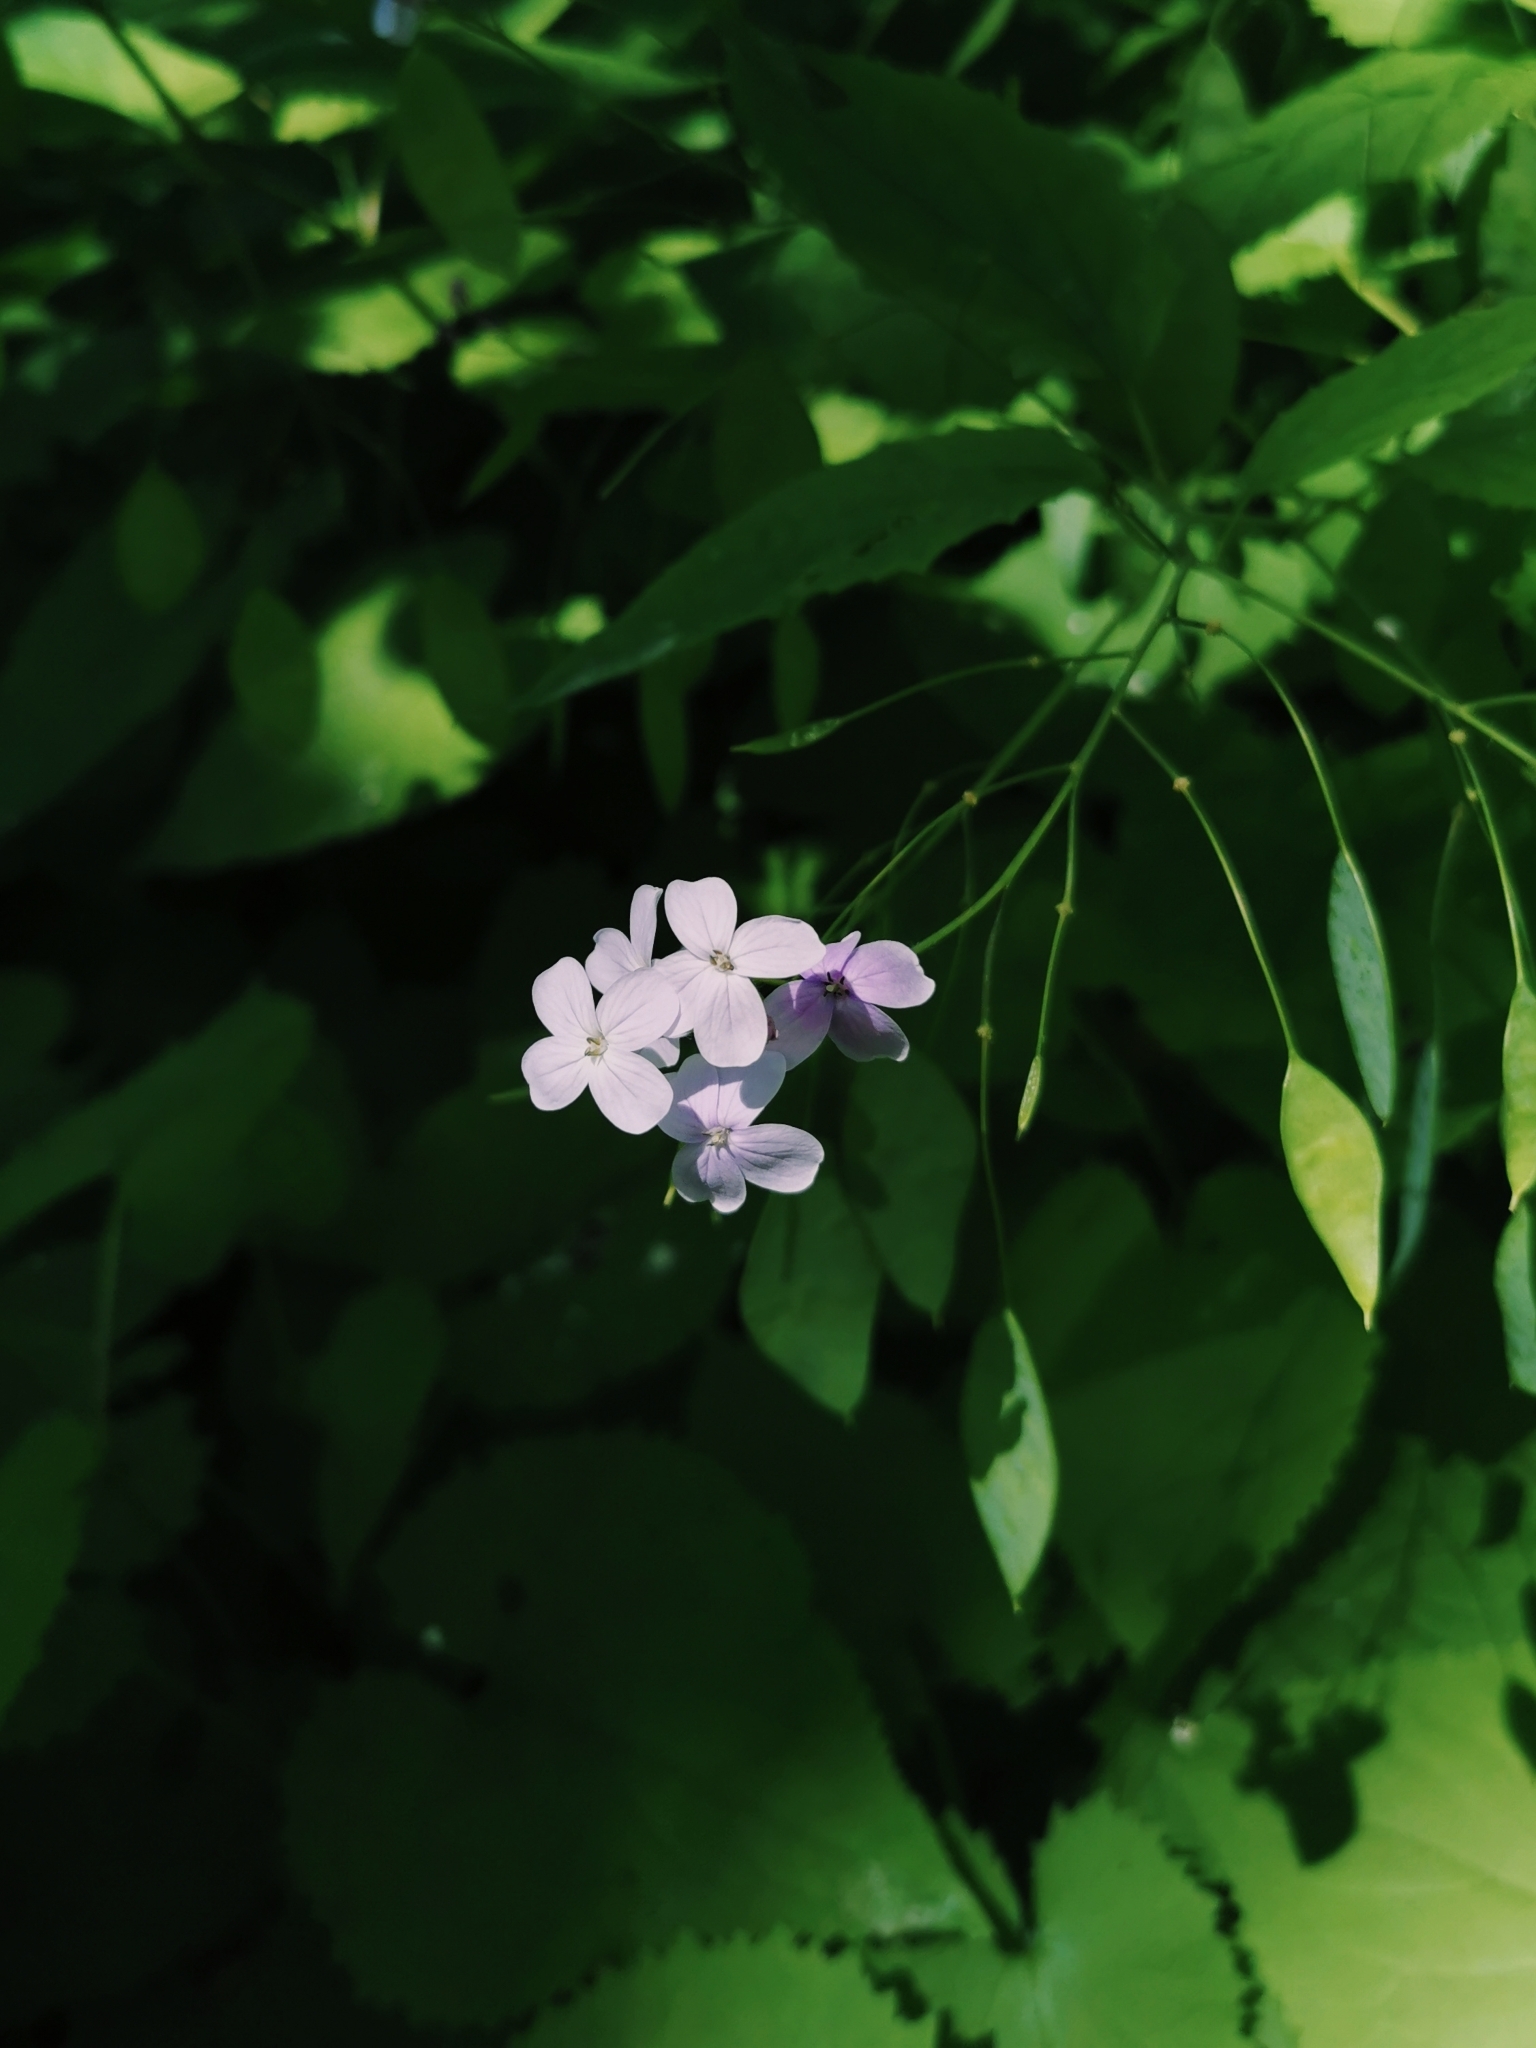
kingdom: Plantae
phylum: Tracheophyta
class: Magnoliopsida
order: Brassicales
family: Brassicaceae
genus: Lunaria
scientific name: Lunaria rediviva
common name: Perennial honesty
